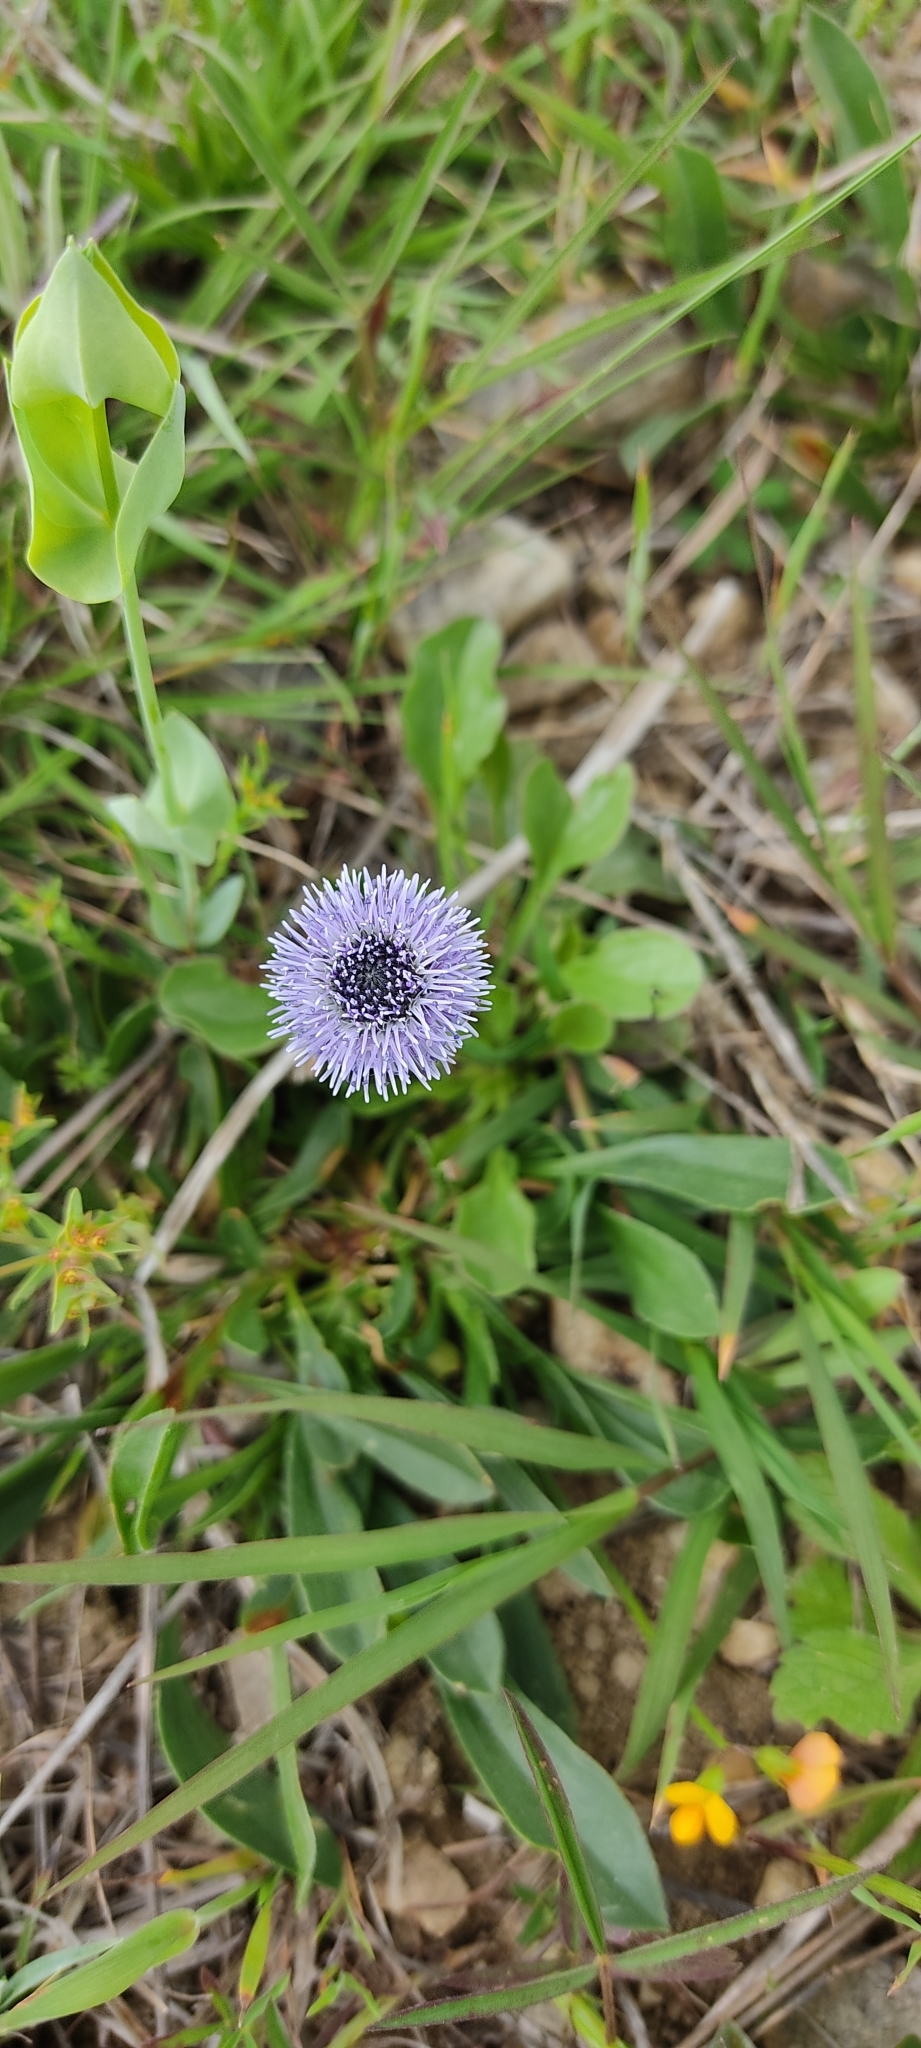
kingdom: Plantae
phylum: Tracheophyta
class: Magnoliopsida
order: Lamiales
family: Plantaginaceae
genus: Globularia
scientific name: Globularia vulgaris
